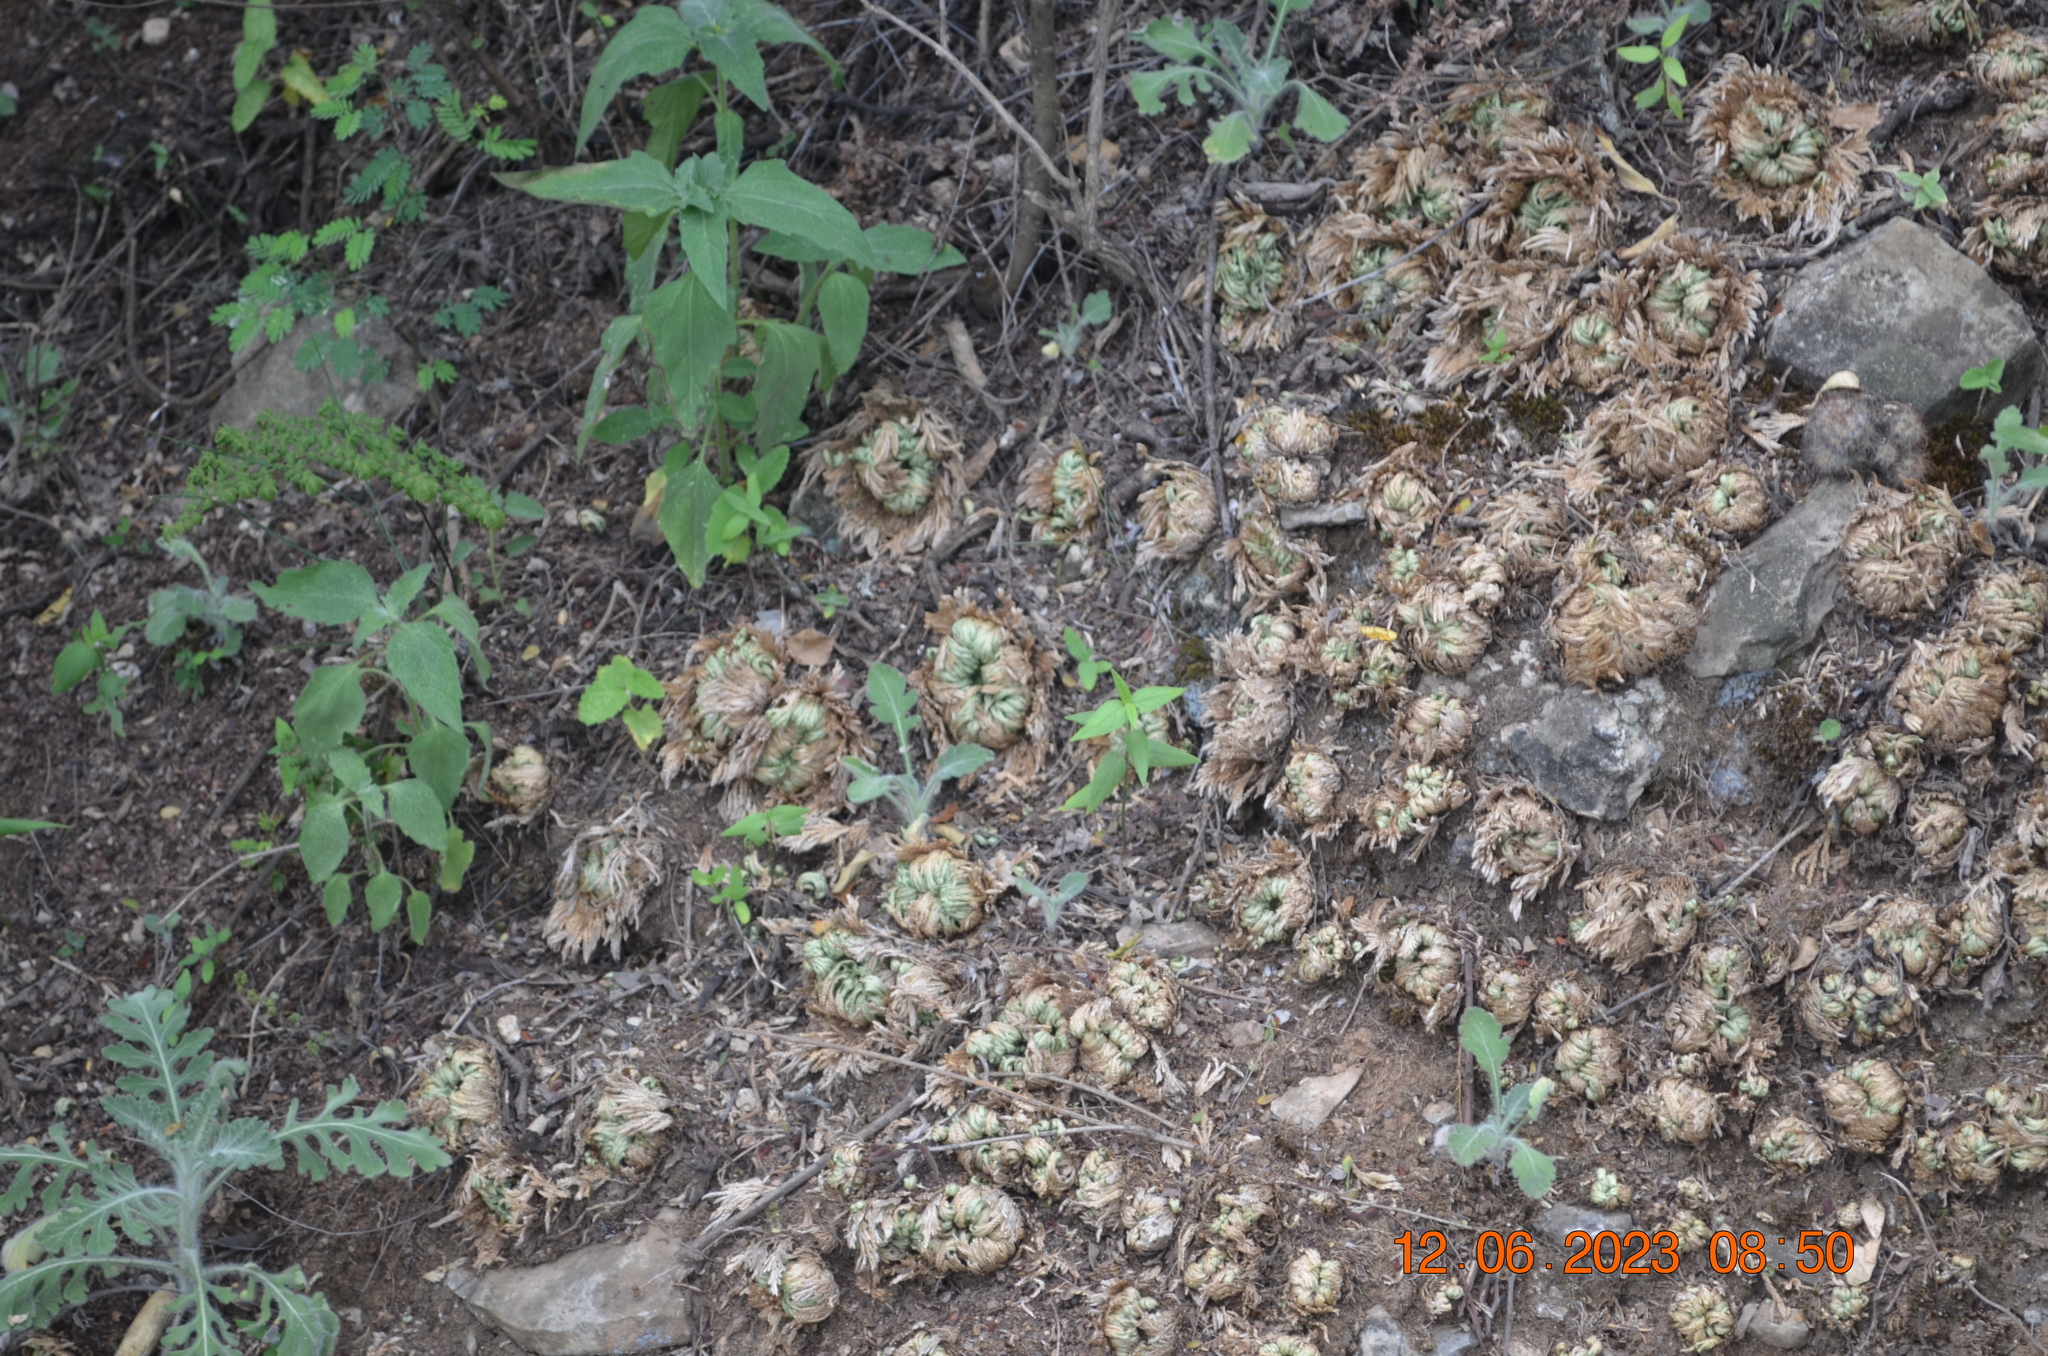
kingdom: Plantae
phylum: Tracheophyta
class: Lycopodiopsida
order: Selaginellales
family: Selaginellaceae
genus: Selaginella
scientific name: Selaginella lepidophylla
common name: Rose-of-jericho
